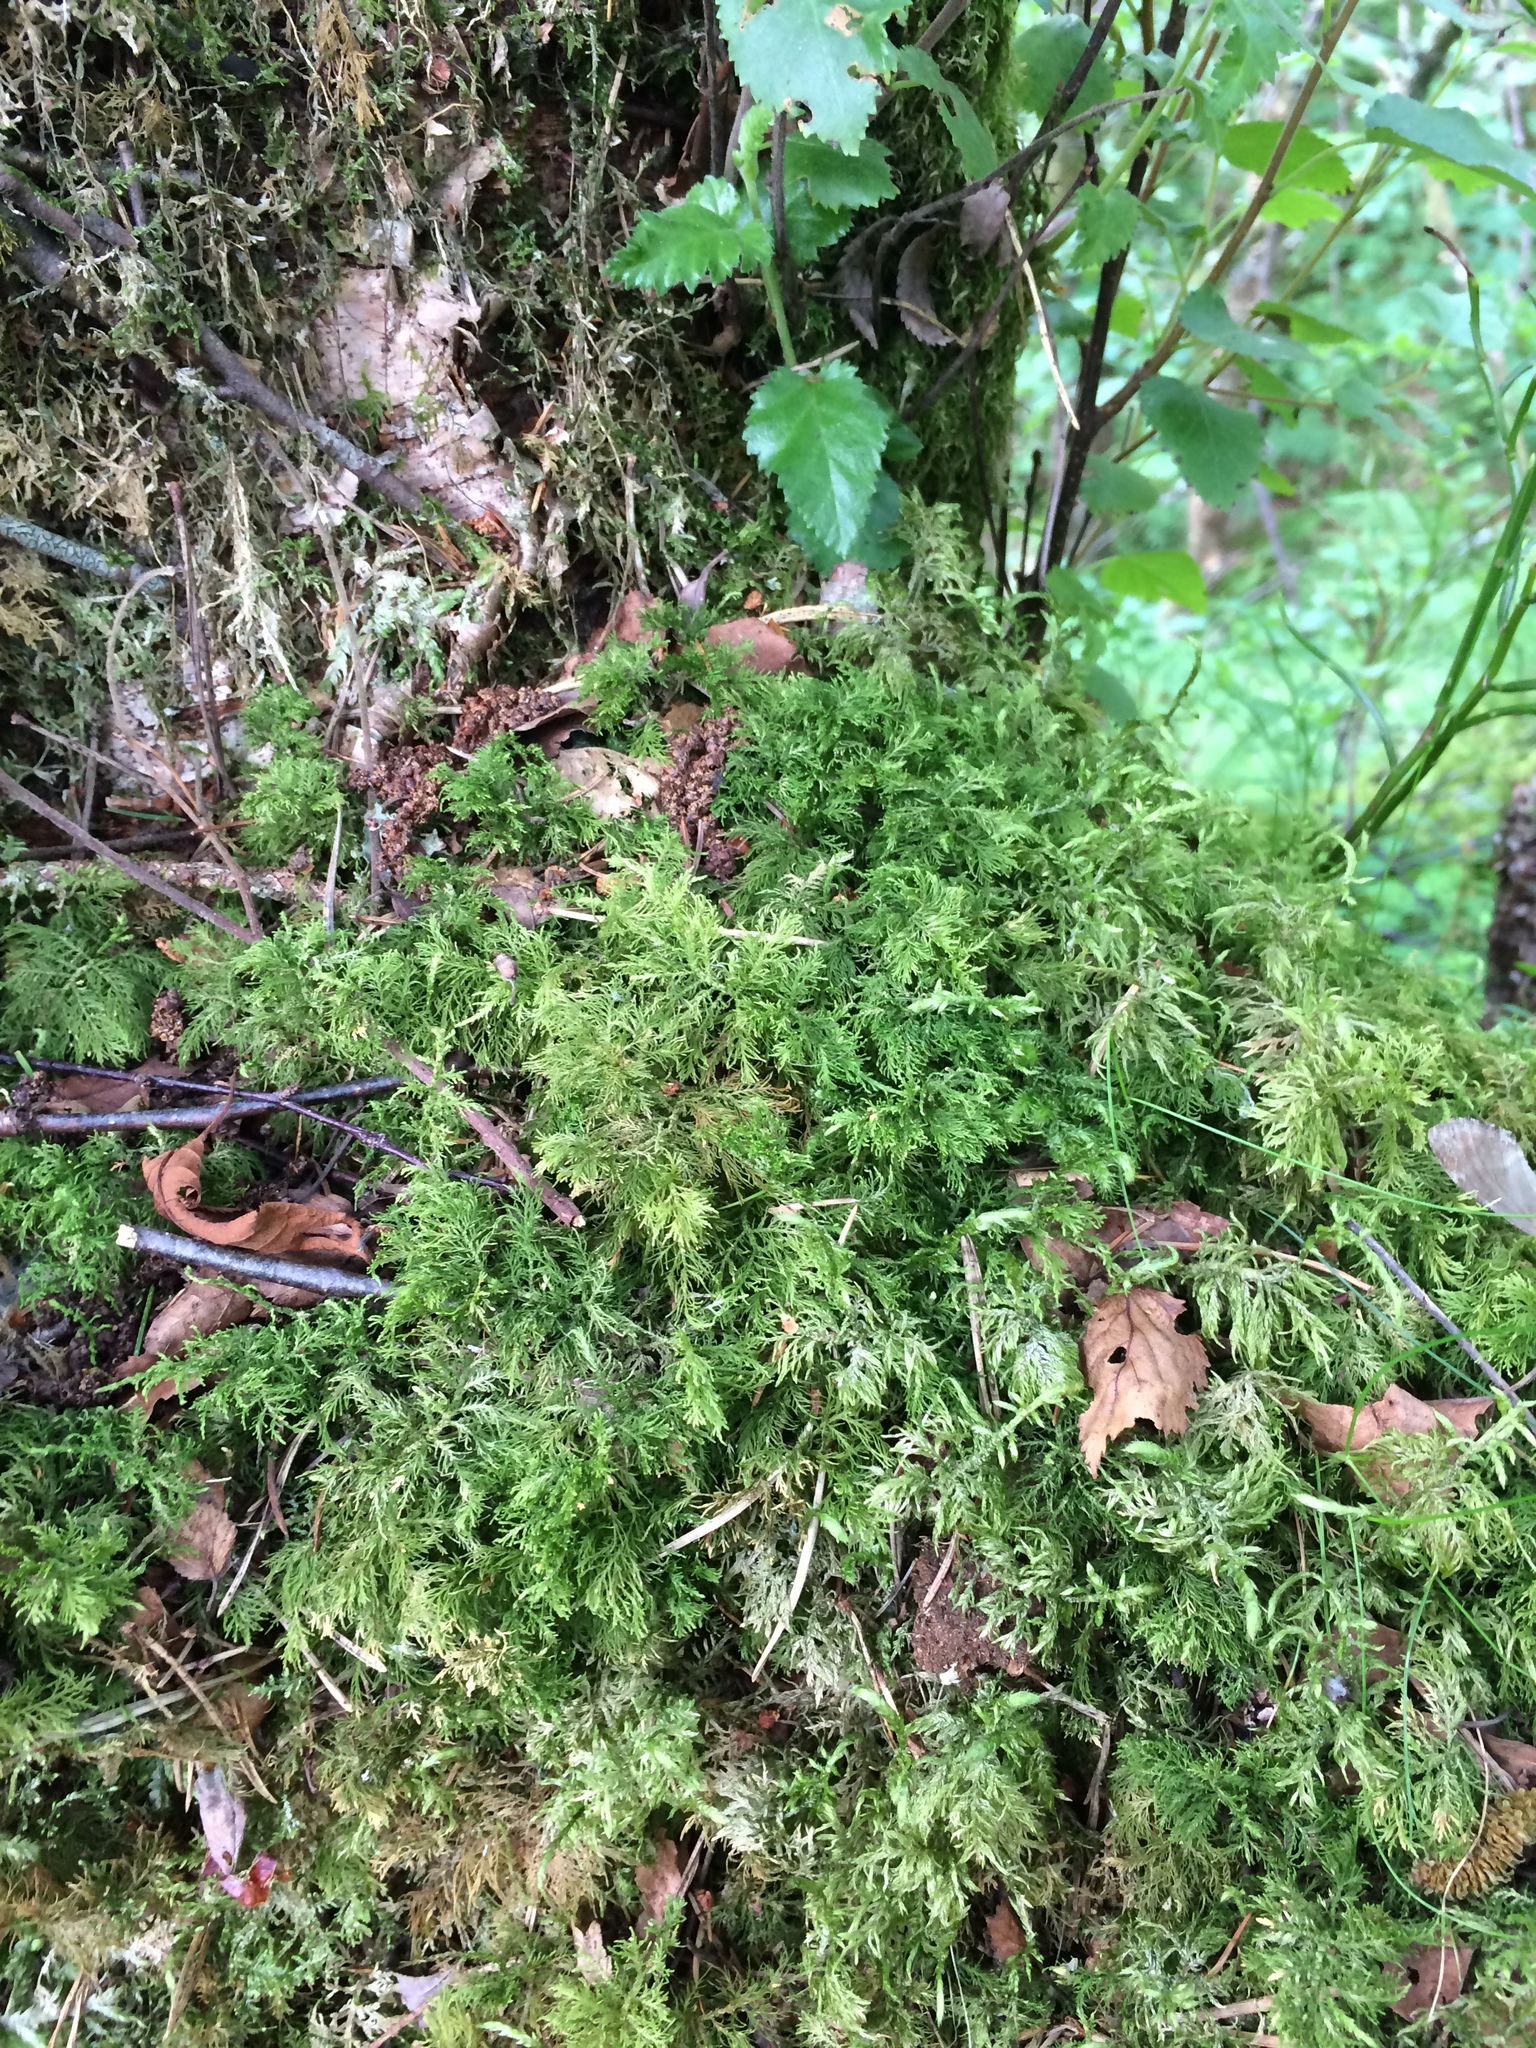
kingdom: Plantae
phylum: Bryophyta
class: Bryopsida
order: Hypnales
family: Hylocomiaceae
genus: Hylocomium
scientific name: Hylocomium splendens
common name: Stairstep moss
